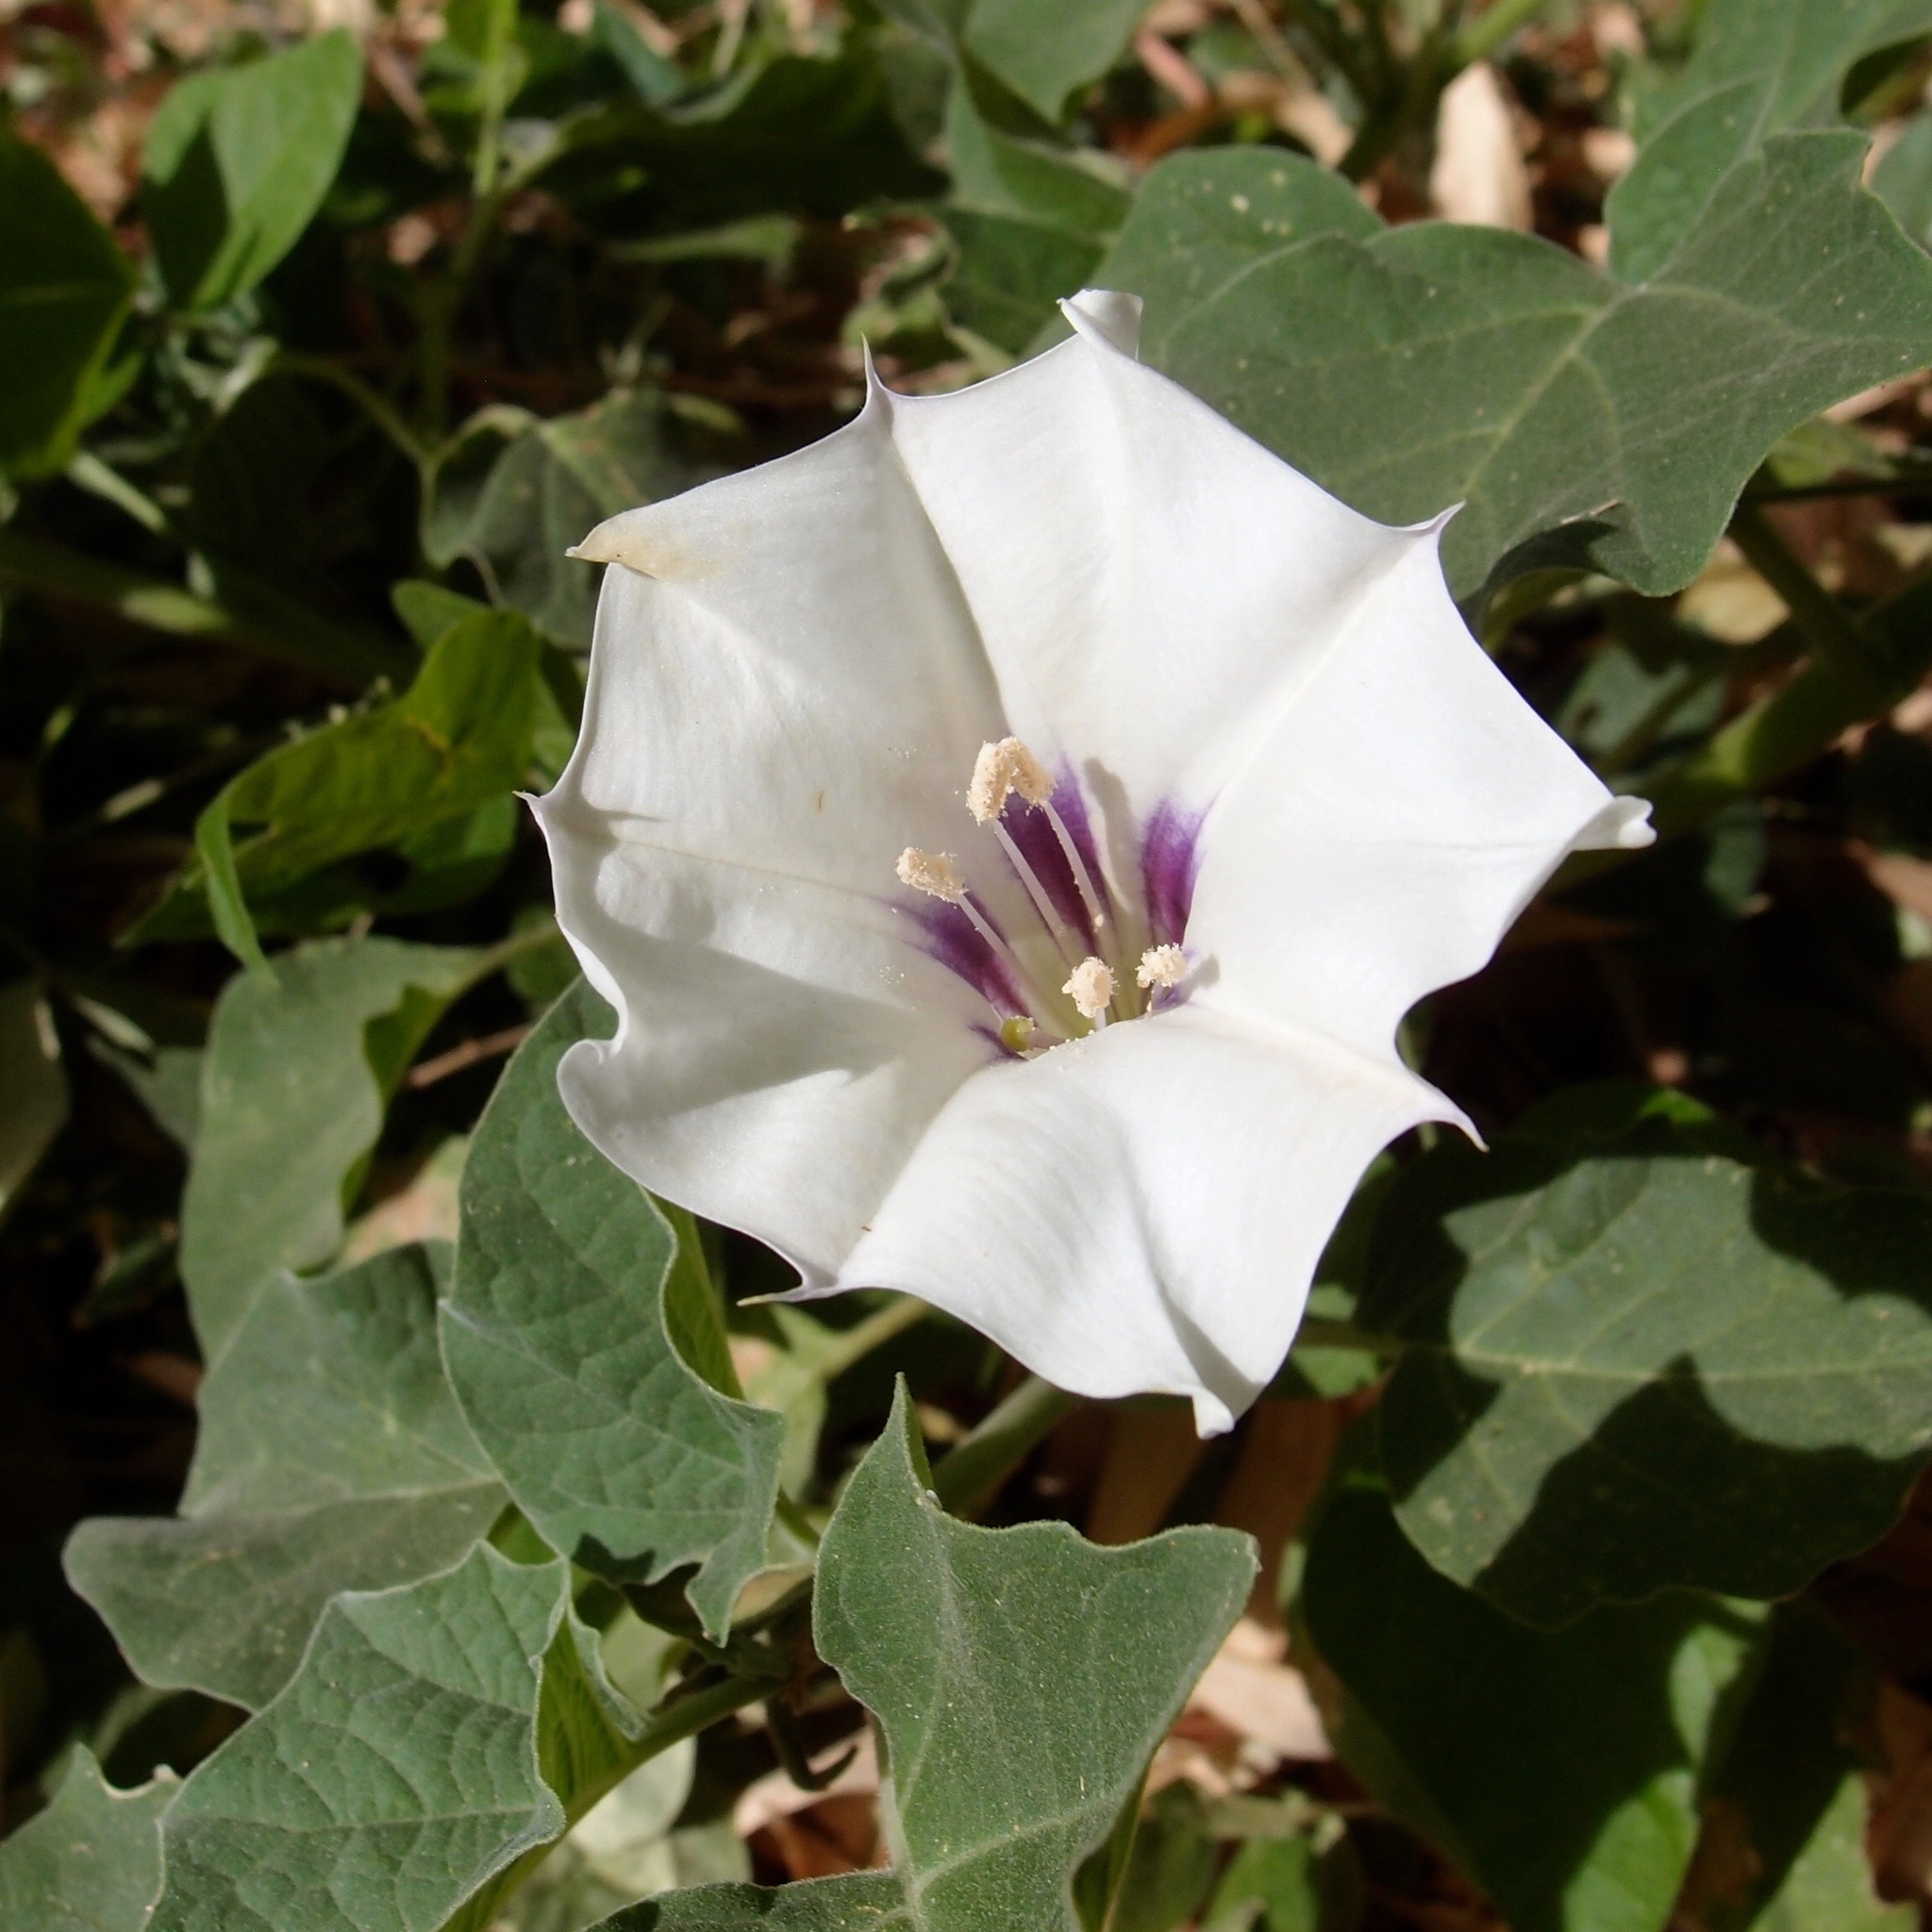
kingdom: Plantae
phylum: Tracheophyta
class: Magnoliopsida
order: Solanales
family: Solanaceae
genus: Datura
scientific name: Datura discolor
